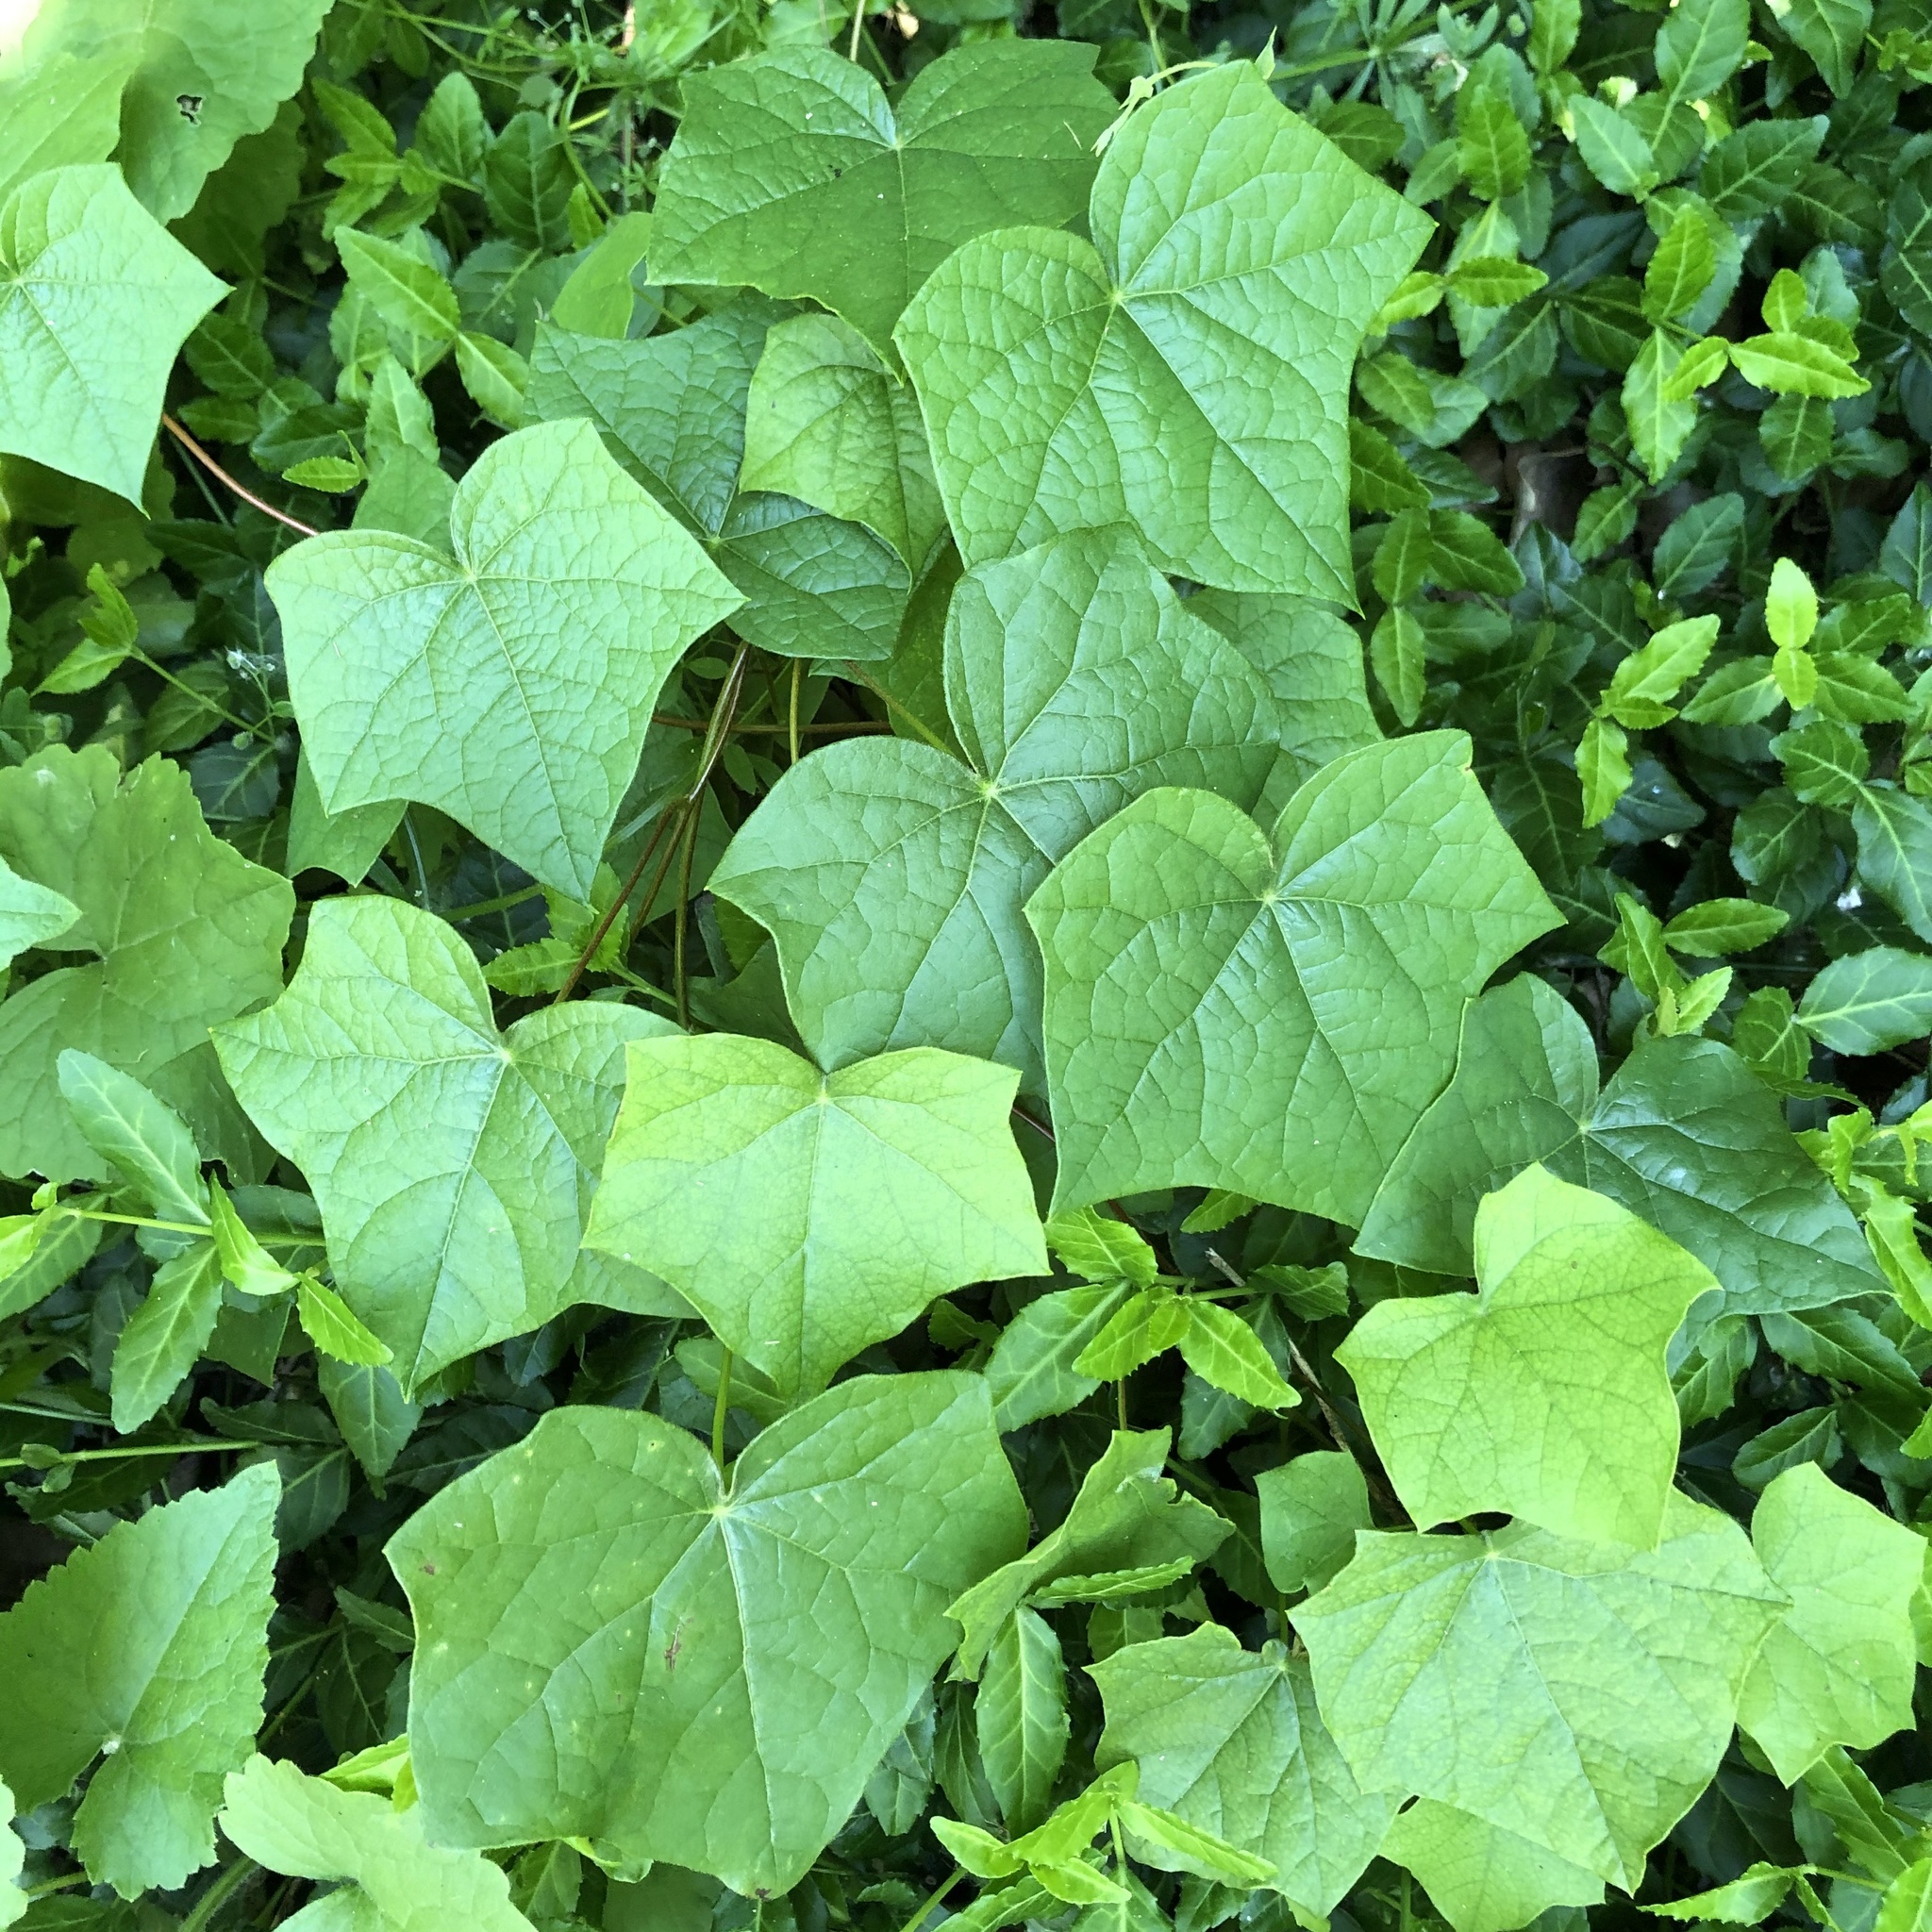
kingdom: Plantae
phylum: Tracheophyta
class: Magnoliopsida
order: Ranunculales
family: Menispermaceae
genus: Menispermum
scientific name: Menispermum canadense
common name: Moonseed
